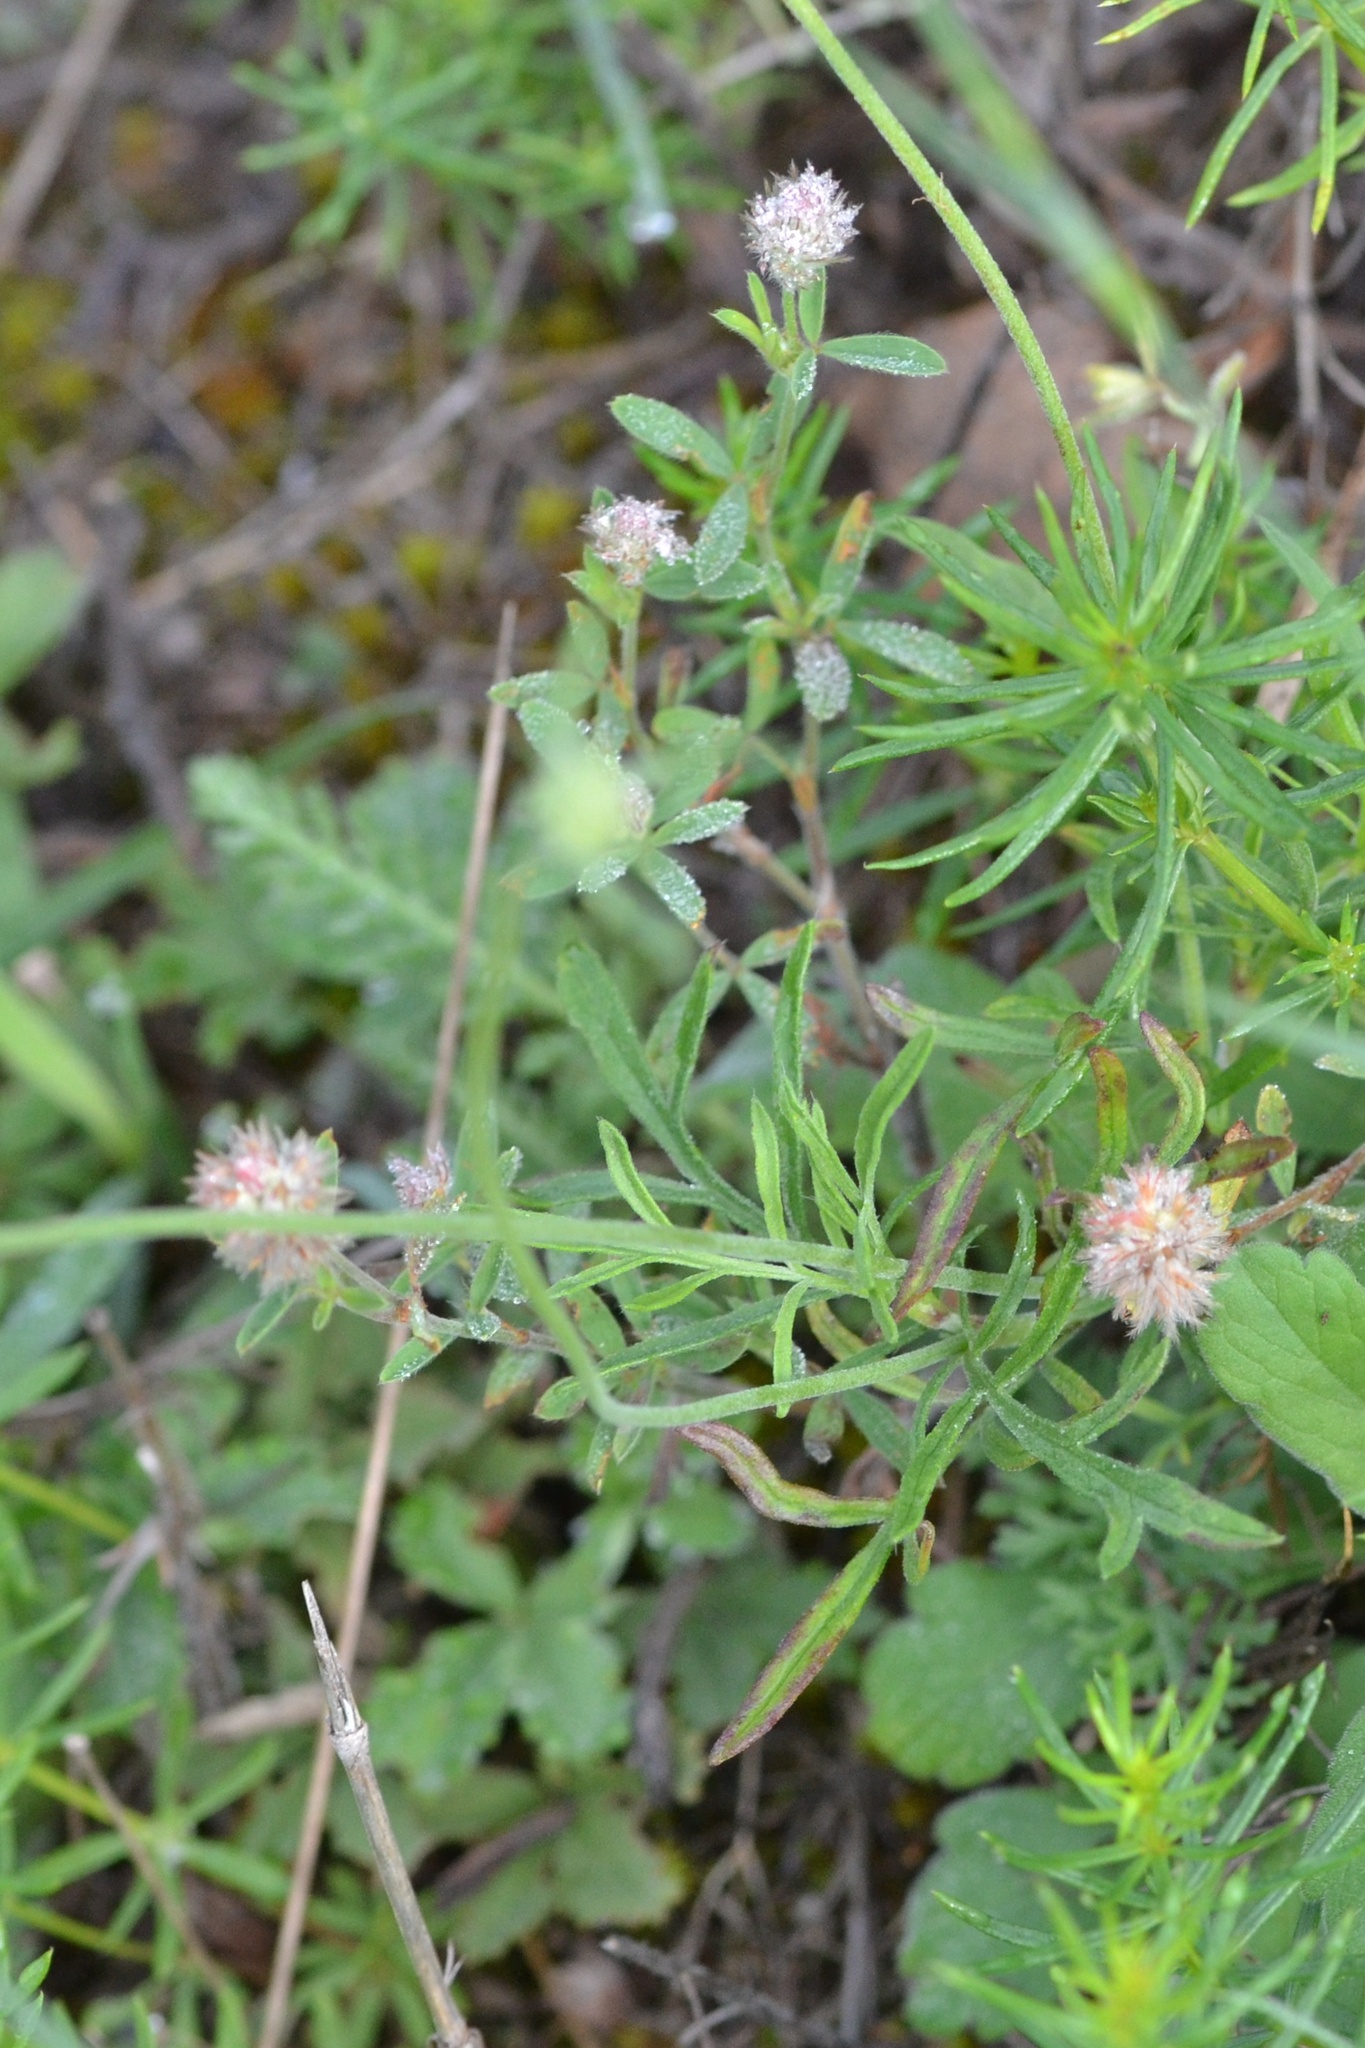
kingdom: Plantae
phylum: Tracheophyta
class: Magnoliopsida
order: Fabales
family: Fabaceae
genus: Trifolium
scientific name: Trifolium arvense
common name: Hare's-foot clover
